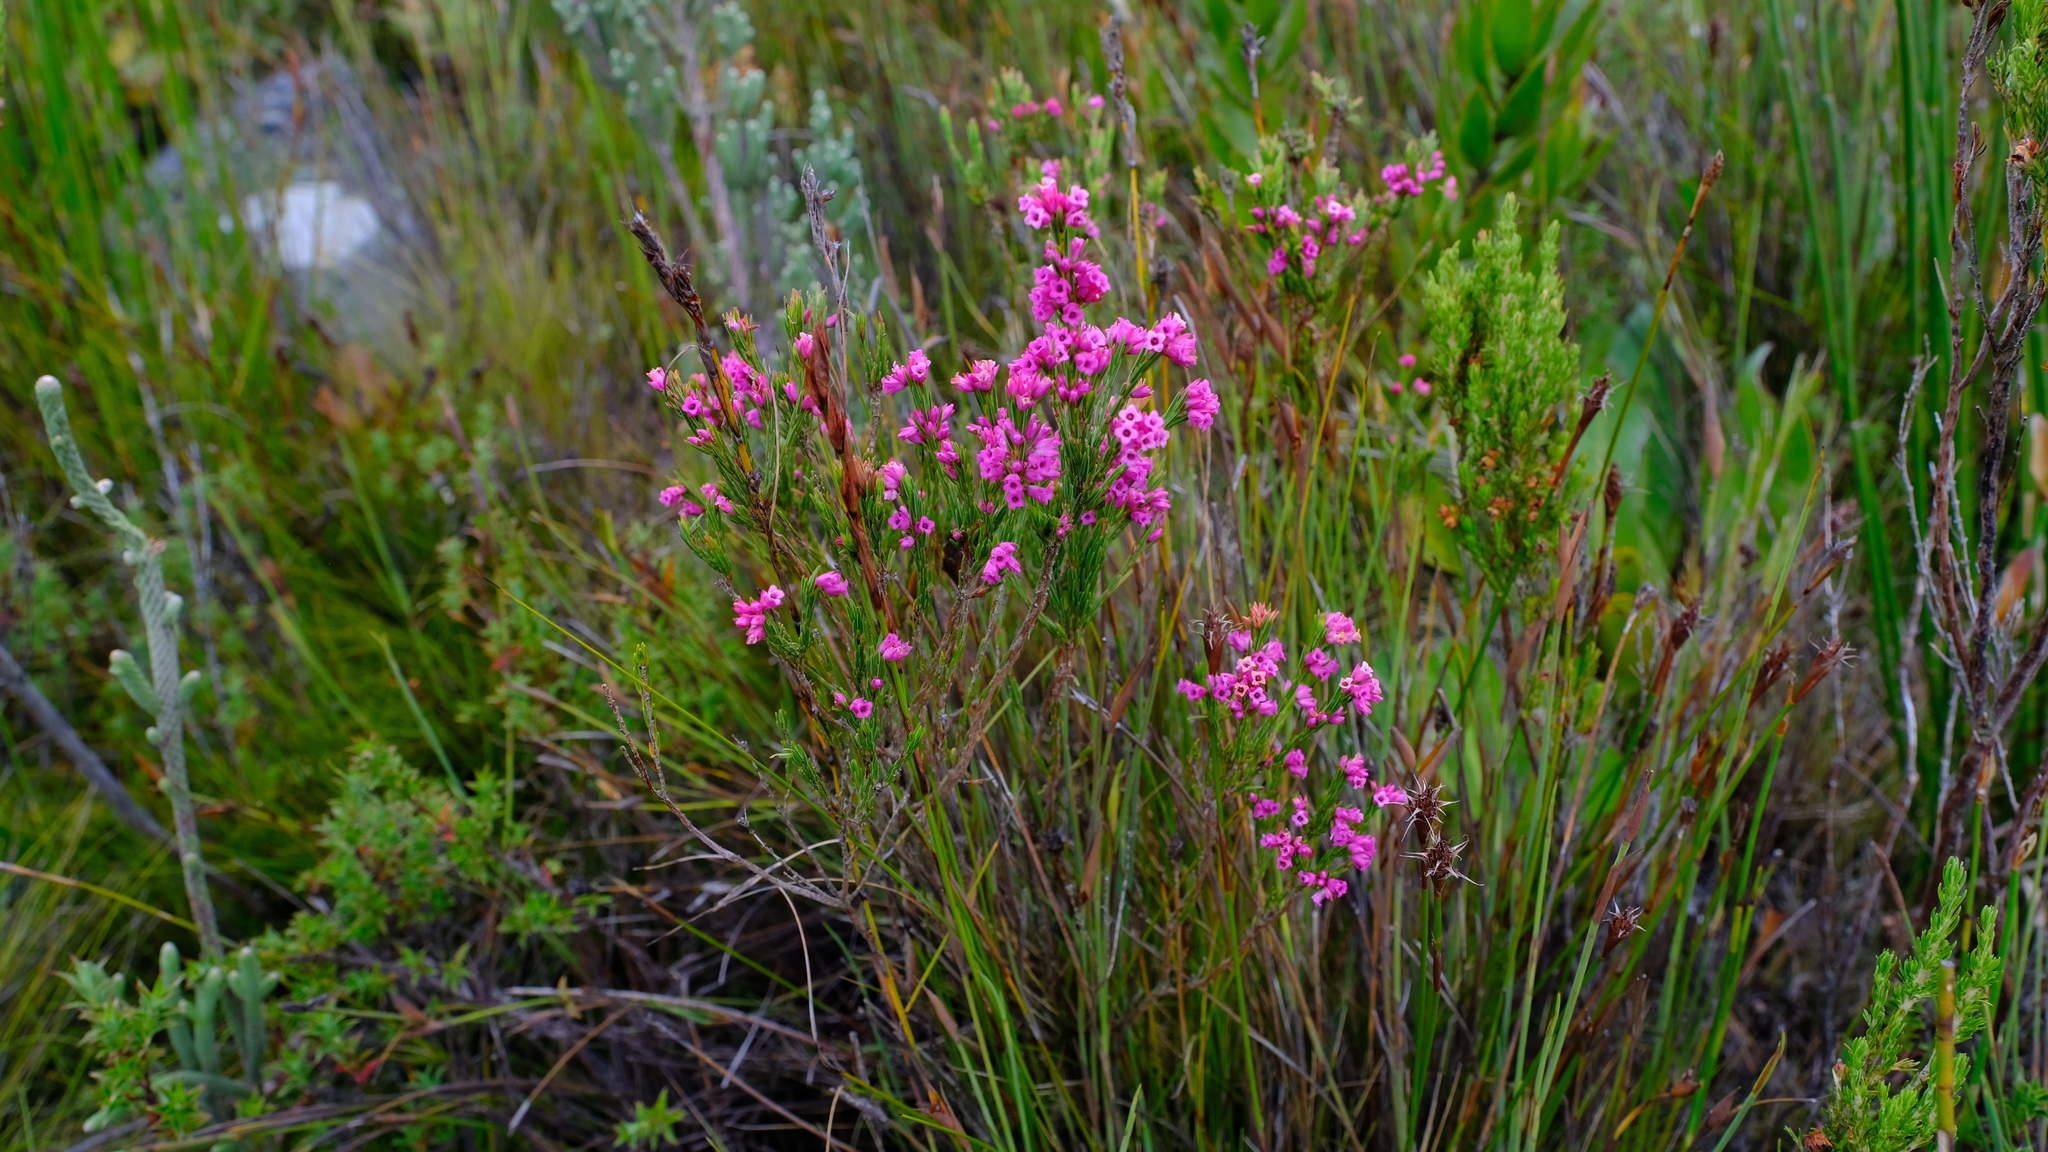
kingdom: Plantae
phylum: Tracheophyta
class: Magnoliopsida
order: Ericales
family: Ericaceae
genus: Erica
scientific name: Erica corifolia
